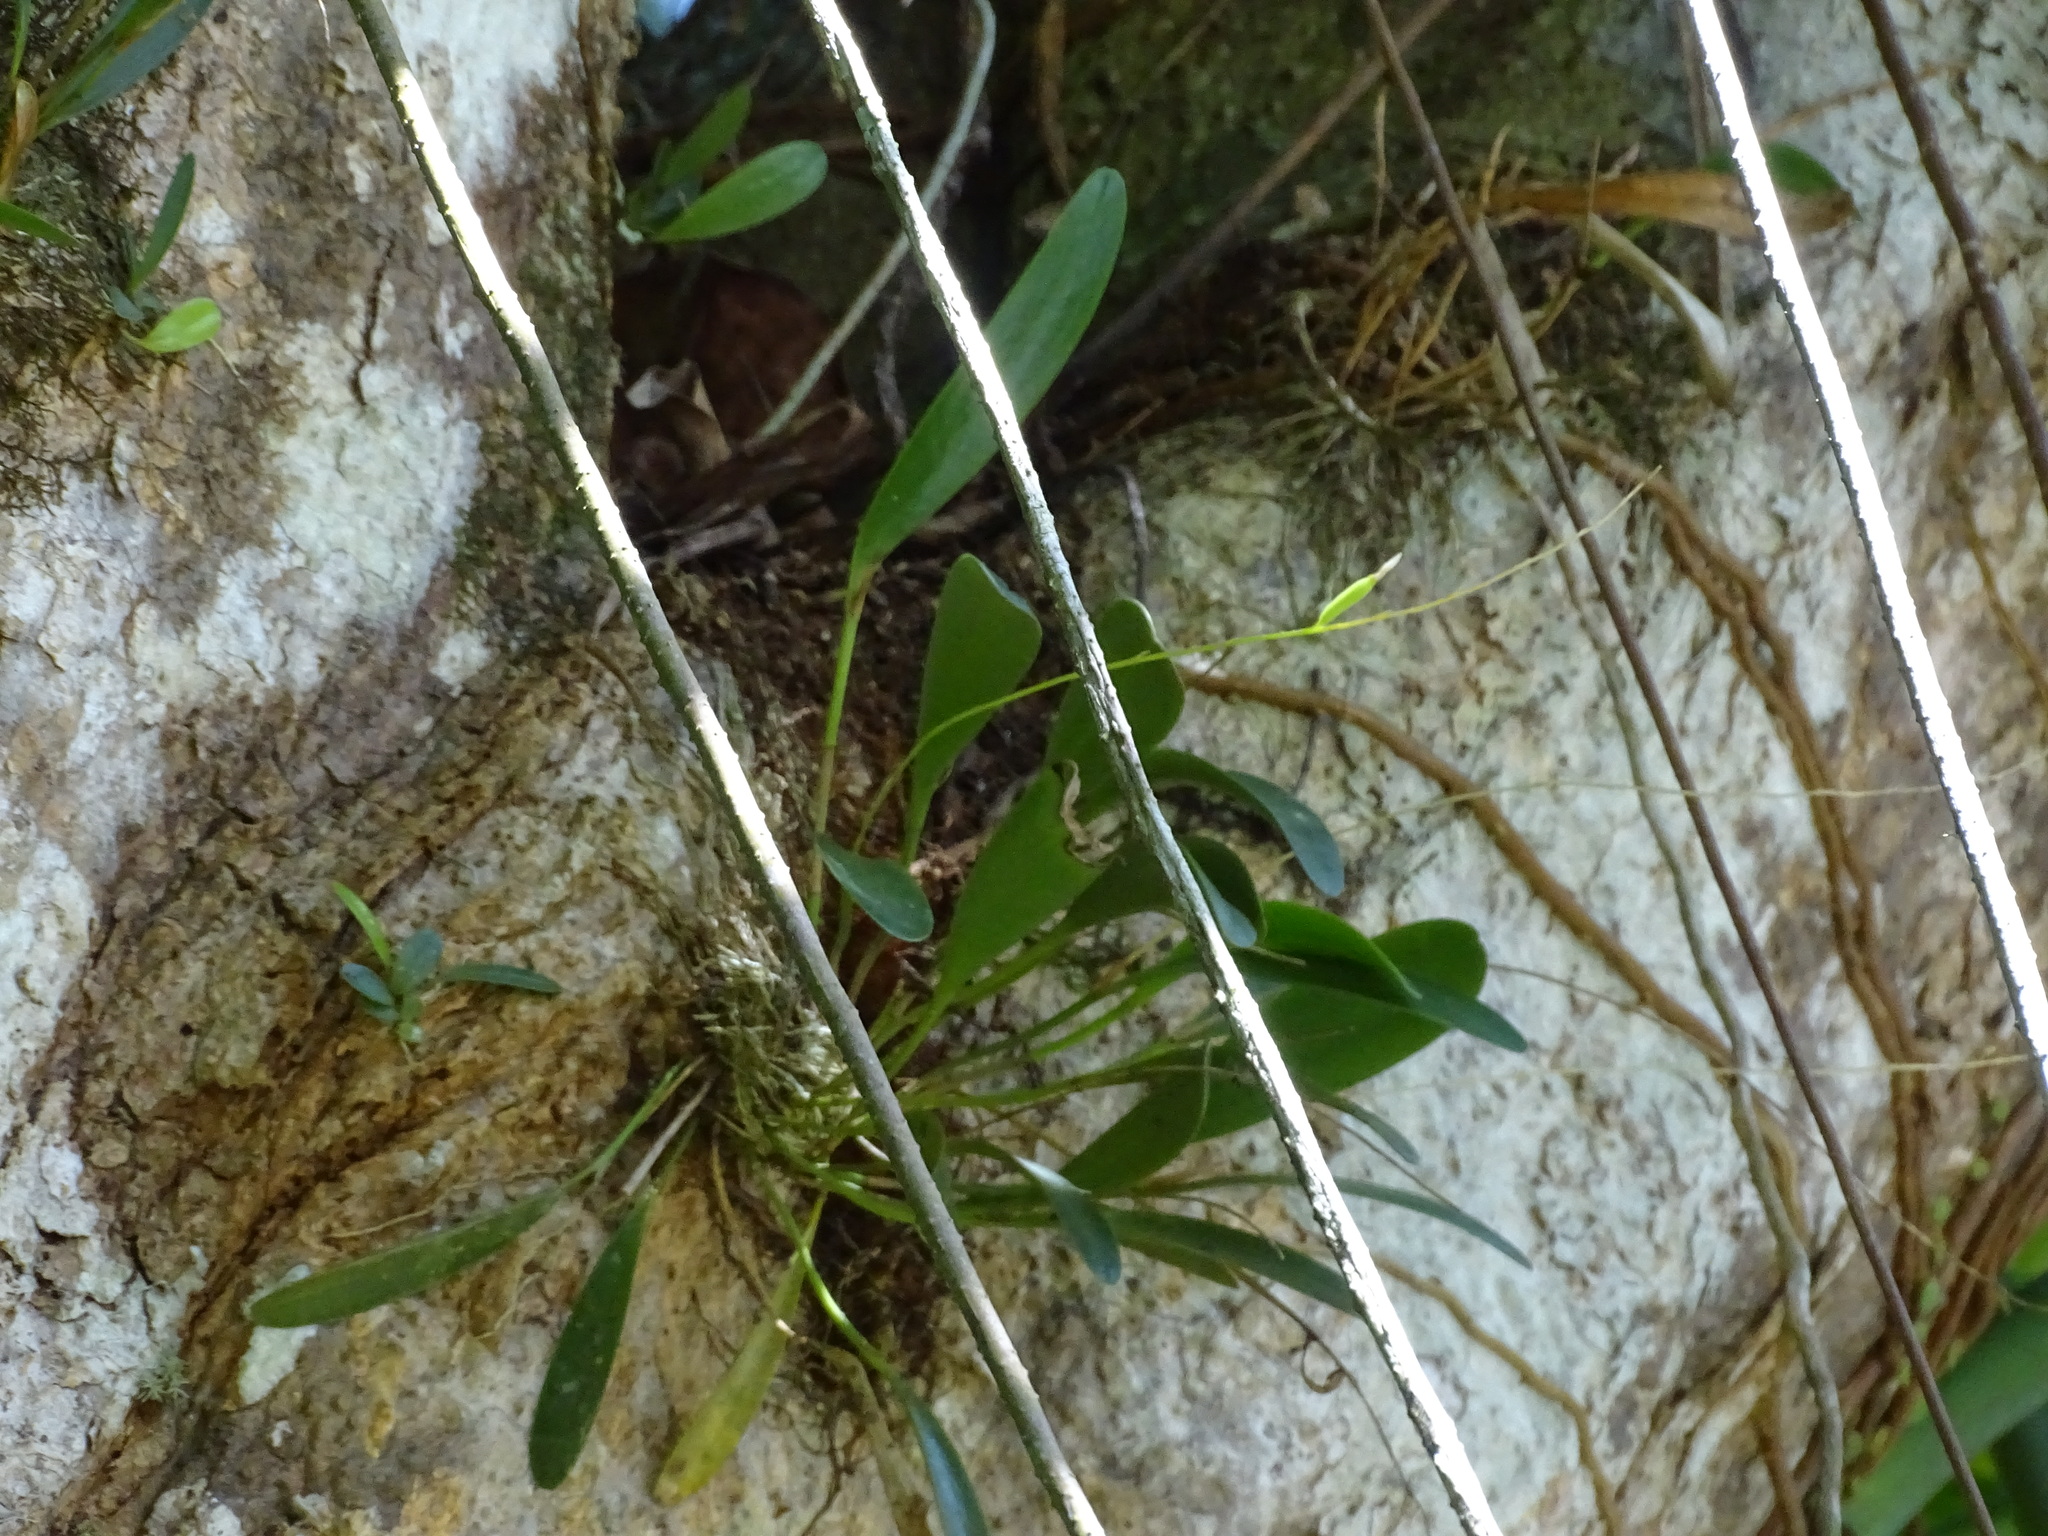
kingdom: Plantae
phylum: Tracheophyta
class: Liliopsida
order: Asparagales
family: Orchidaceae
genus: Pleurothallis
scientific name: Pleurothallis quadrifida
